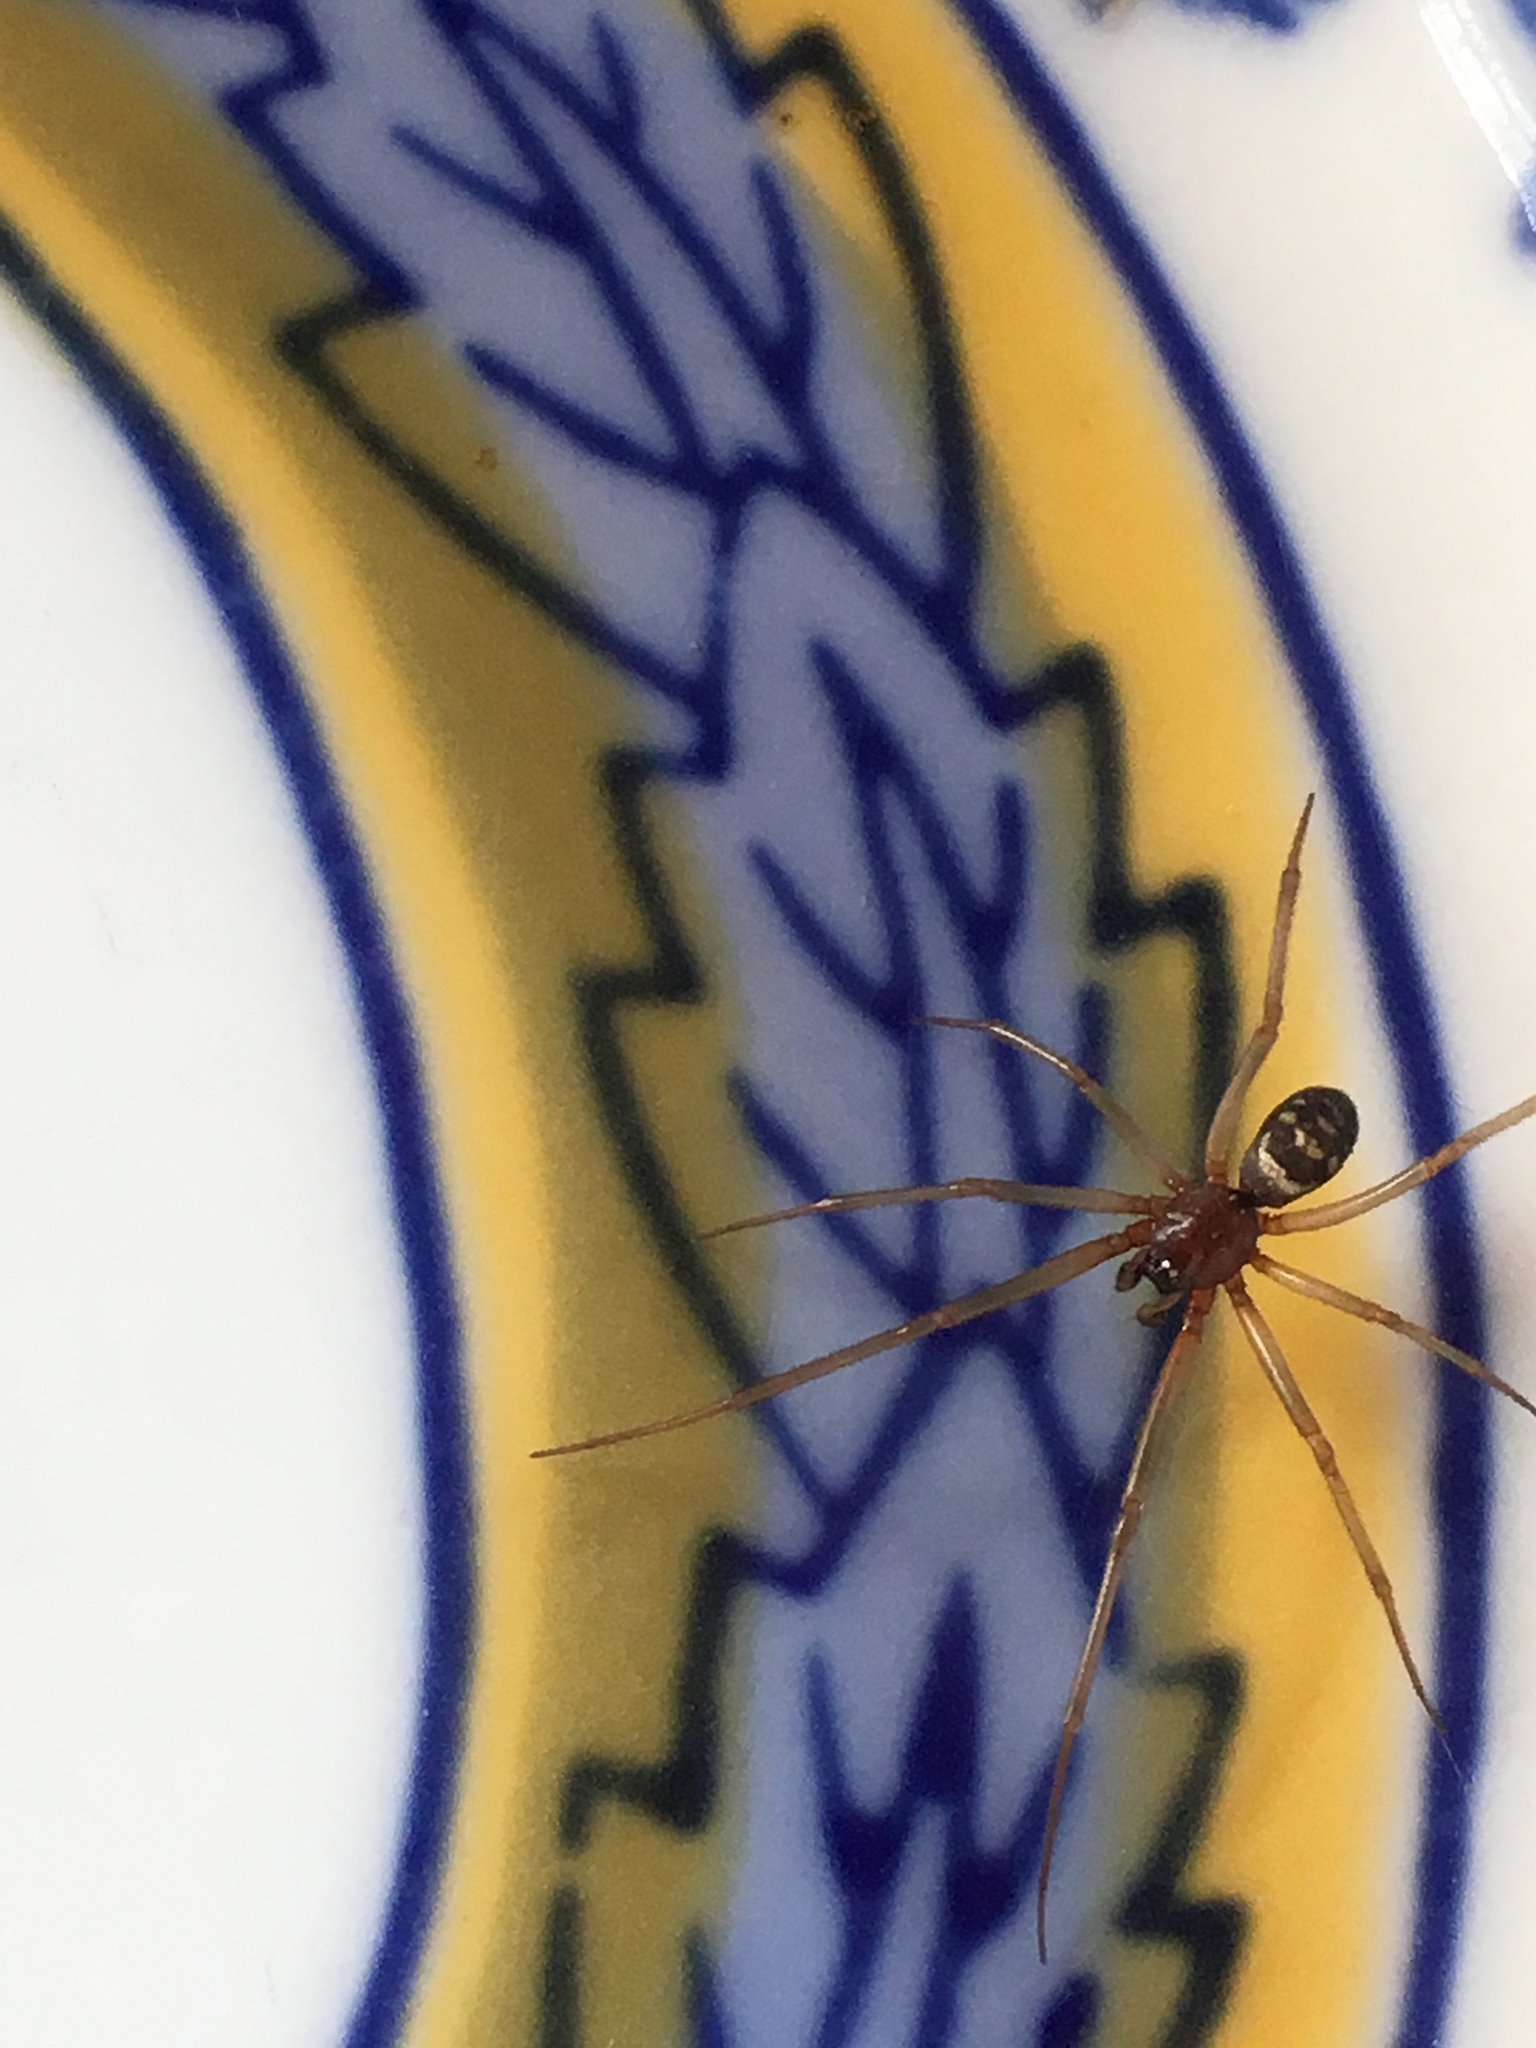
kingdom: Animalia
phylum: Arthropoda
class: Arachnida
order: Araneae
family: Theridiidae
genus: Steatoda
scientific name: Steatoda grossa
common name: False black widow
